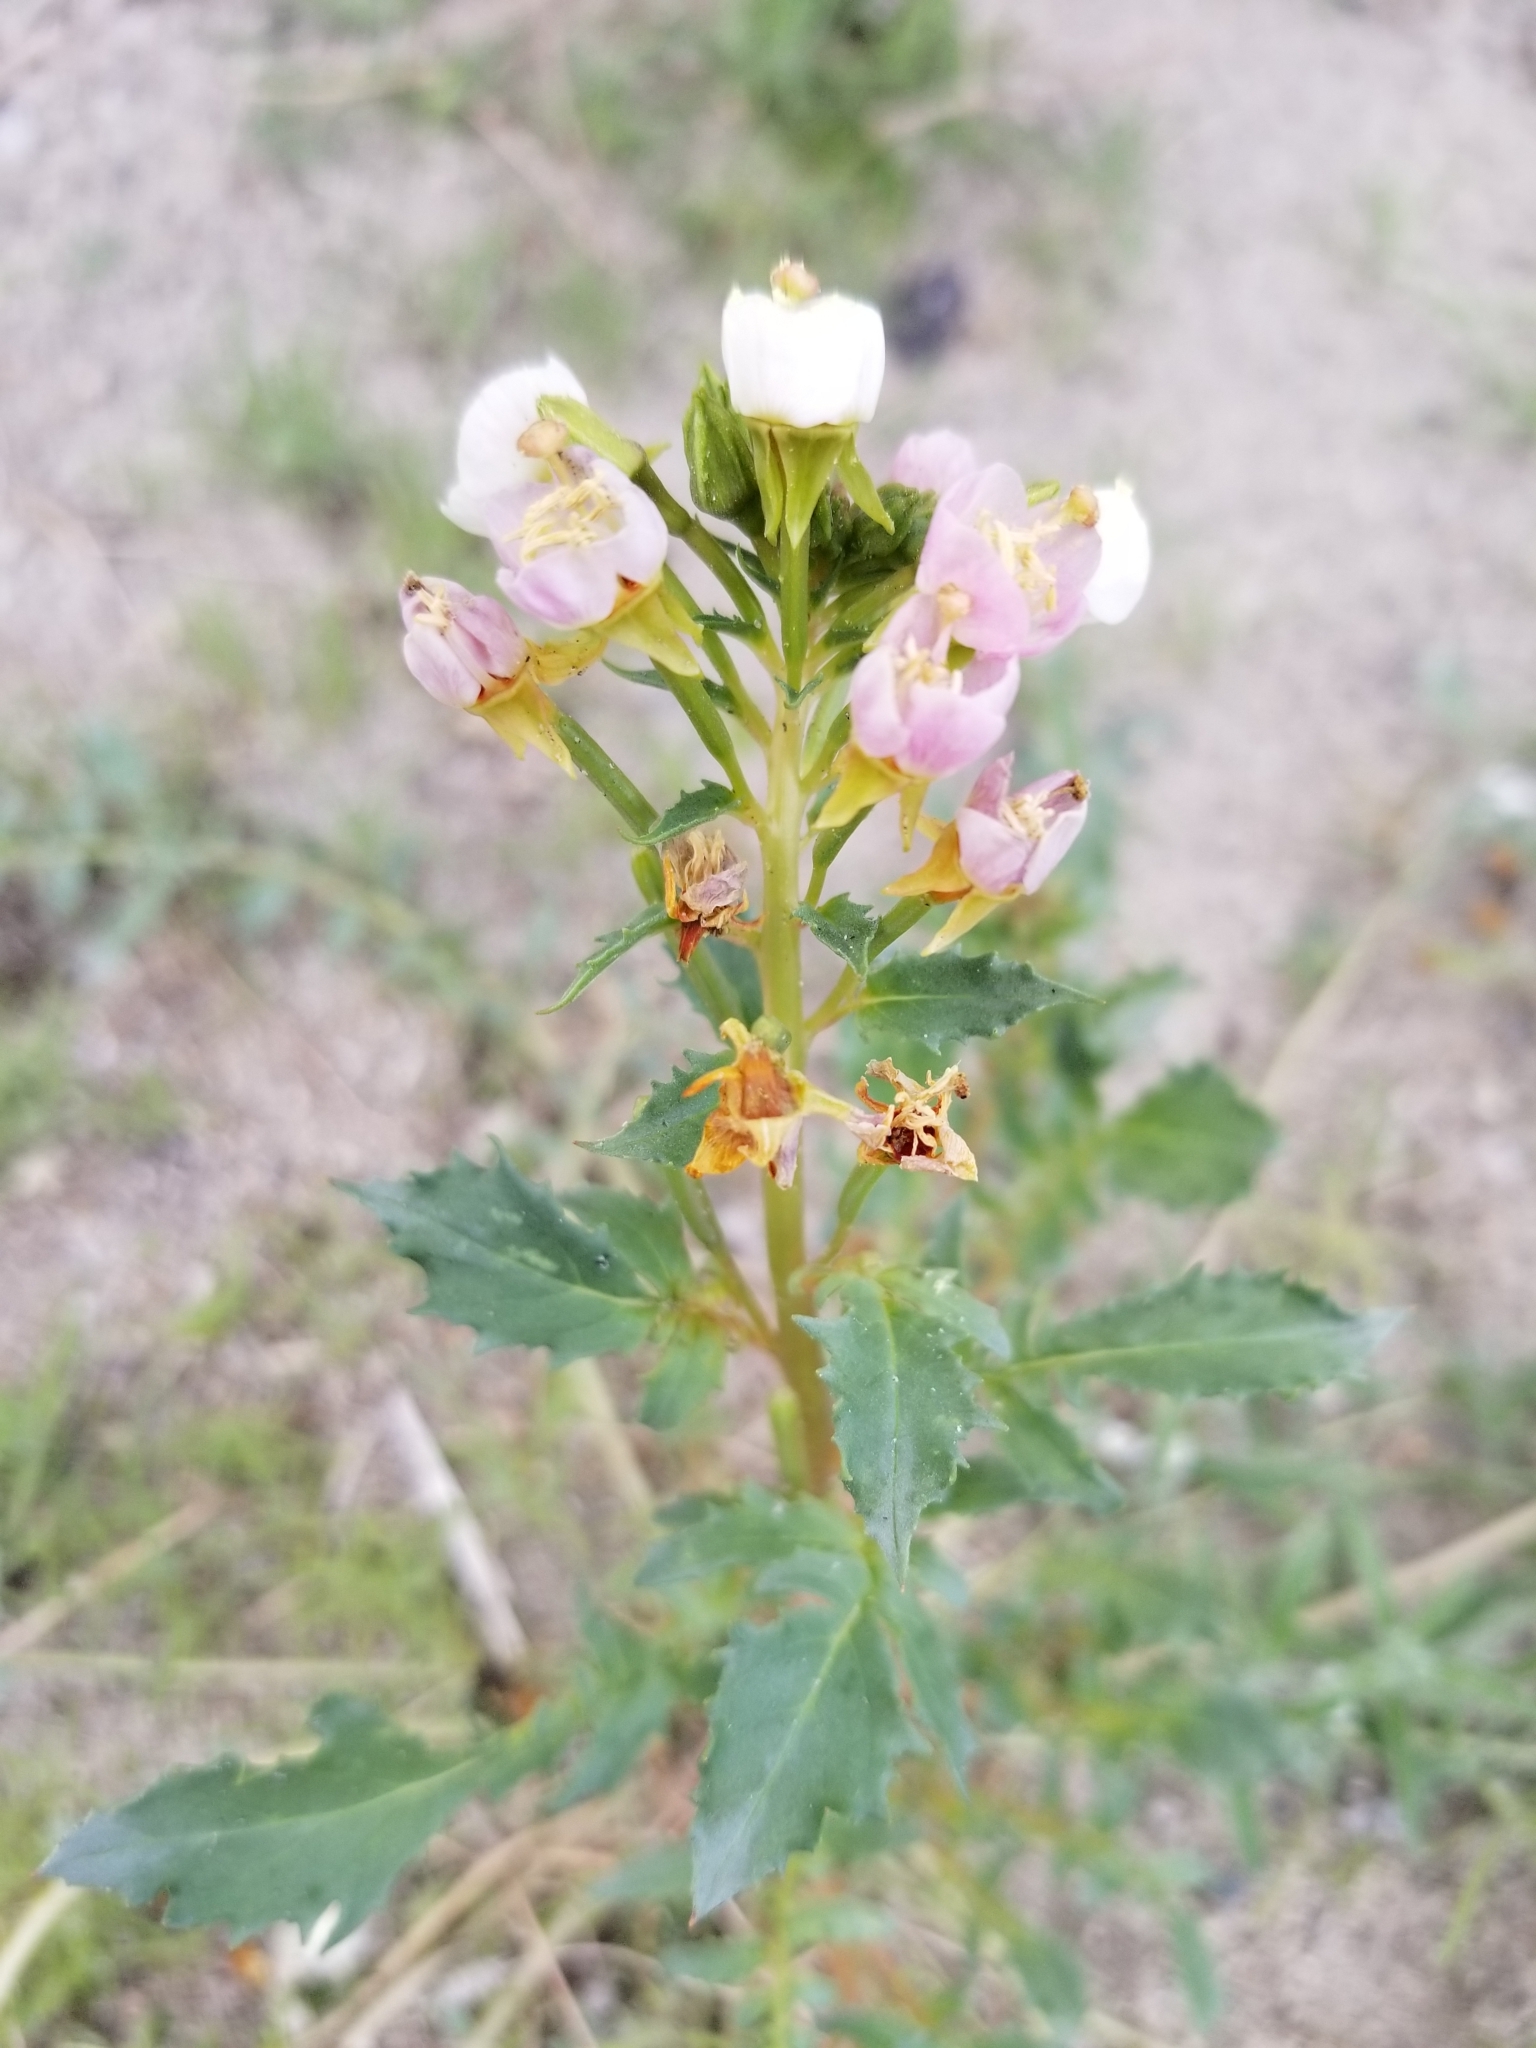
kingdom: Plantae
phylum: Tracheophyta
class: Magnoliopsida
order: Myrtales
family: Onagraceae
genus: Chylismia
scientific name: Chylismia claviformis
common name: Browneyes
